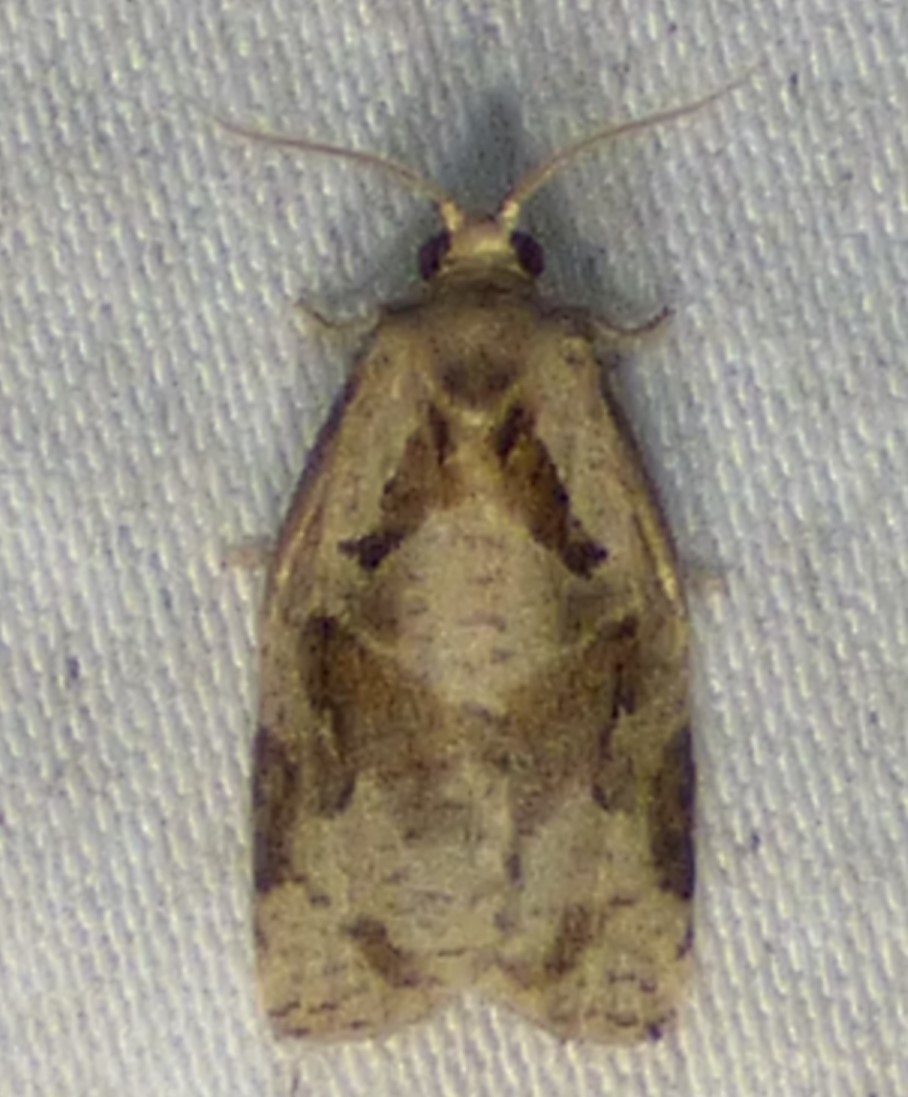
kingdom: Animalia
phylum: Arthropoda
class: Insecta
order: Lepidoptera
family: Tortricidae
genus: Archips
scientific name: Archips grisea
